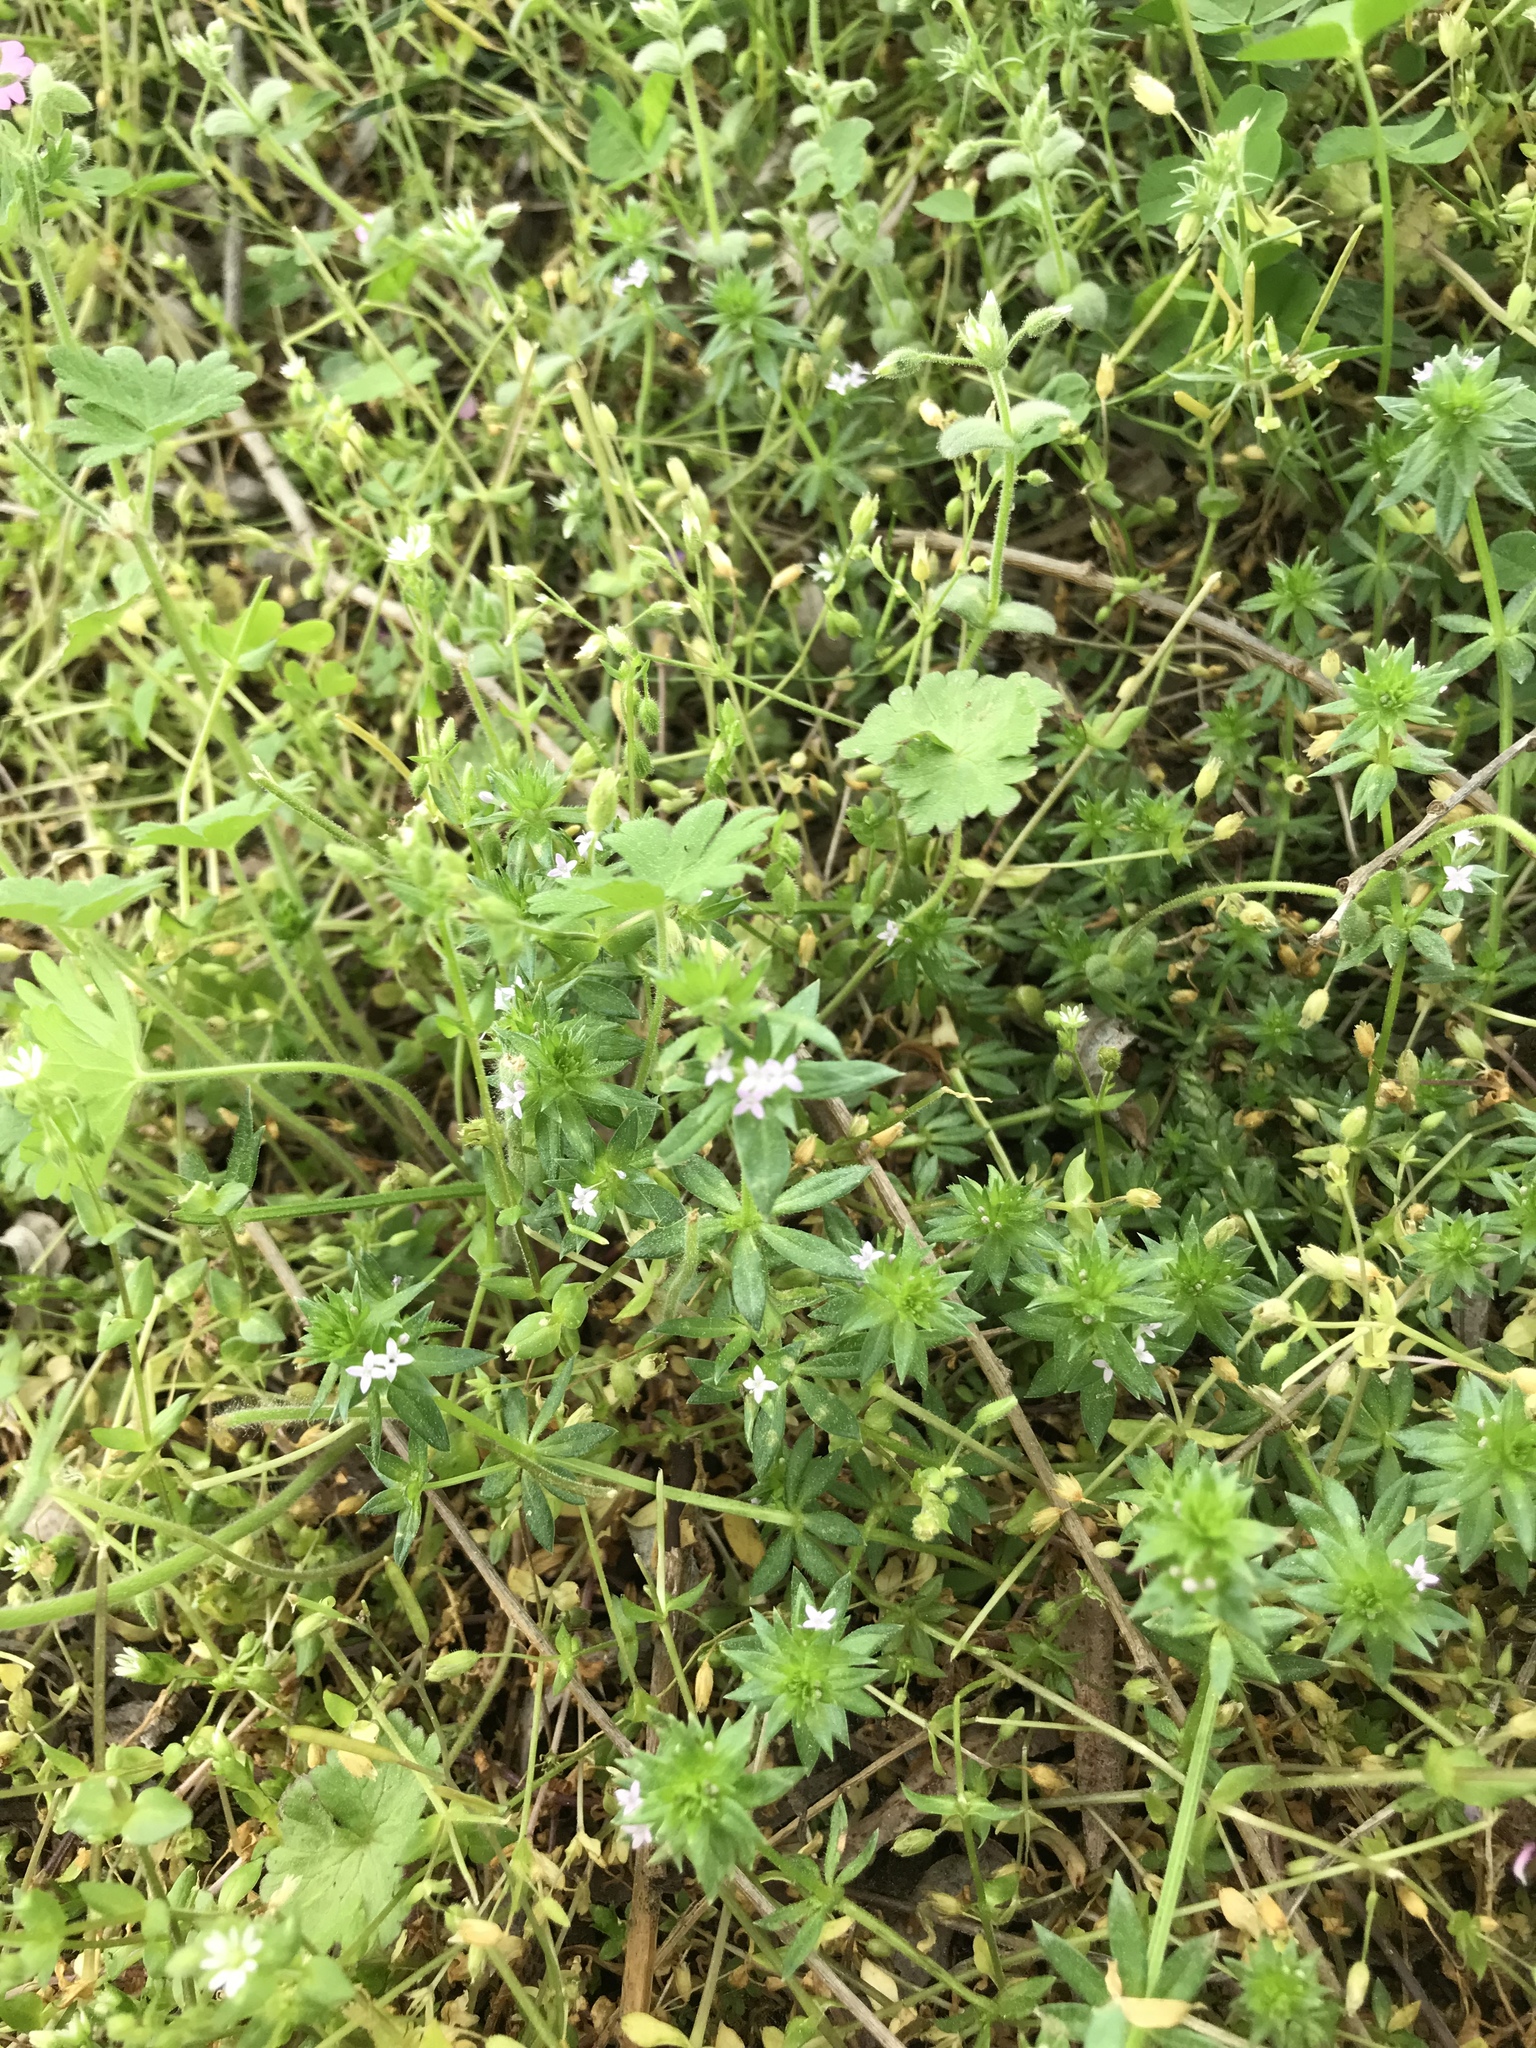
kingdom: Plantae
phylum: Tracheophyta
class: Magnoliopsida
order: Gentianales
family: Rubiaceae
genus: Sherardia
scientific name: Sherardia arvensis
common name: Field madder
